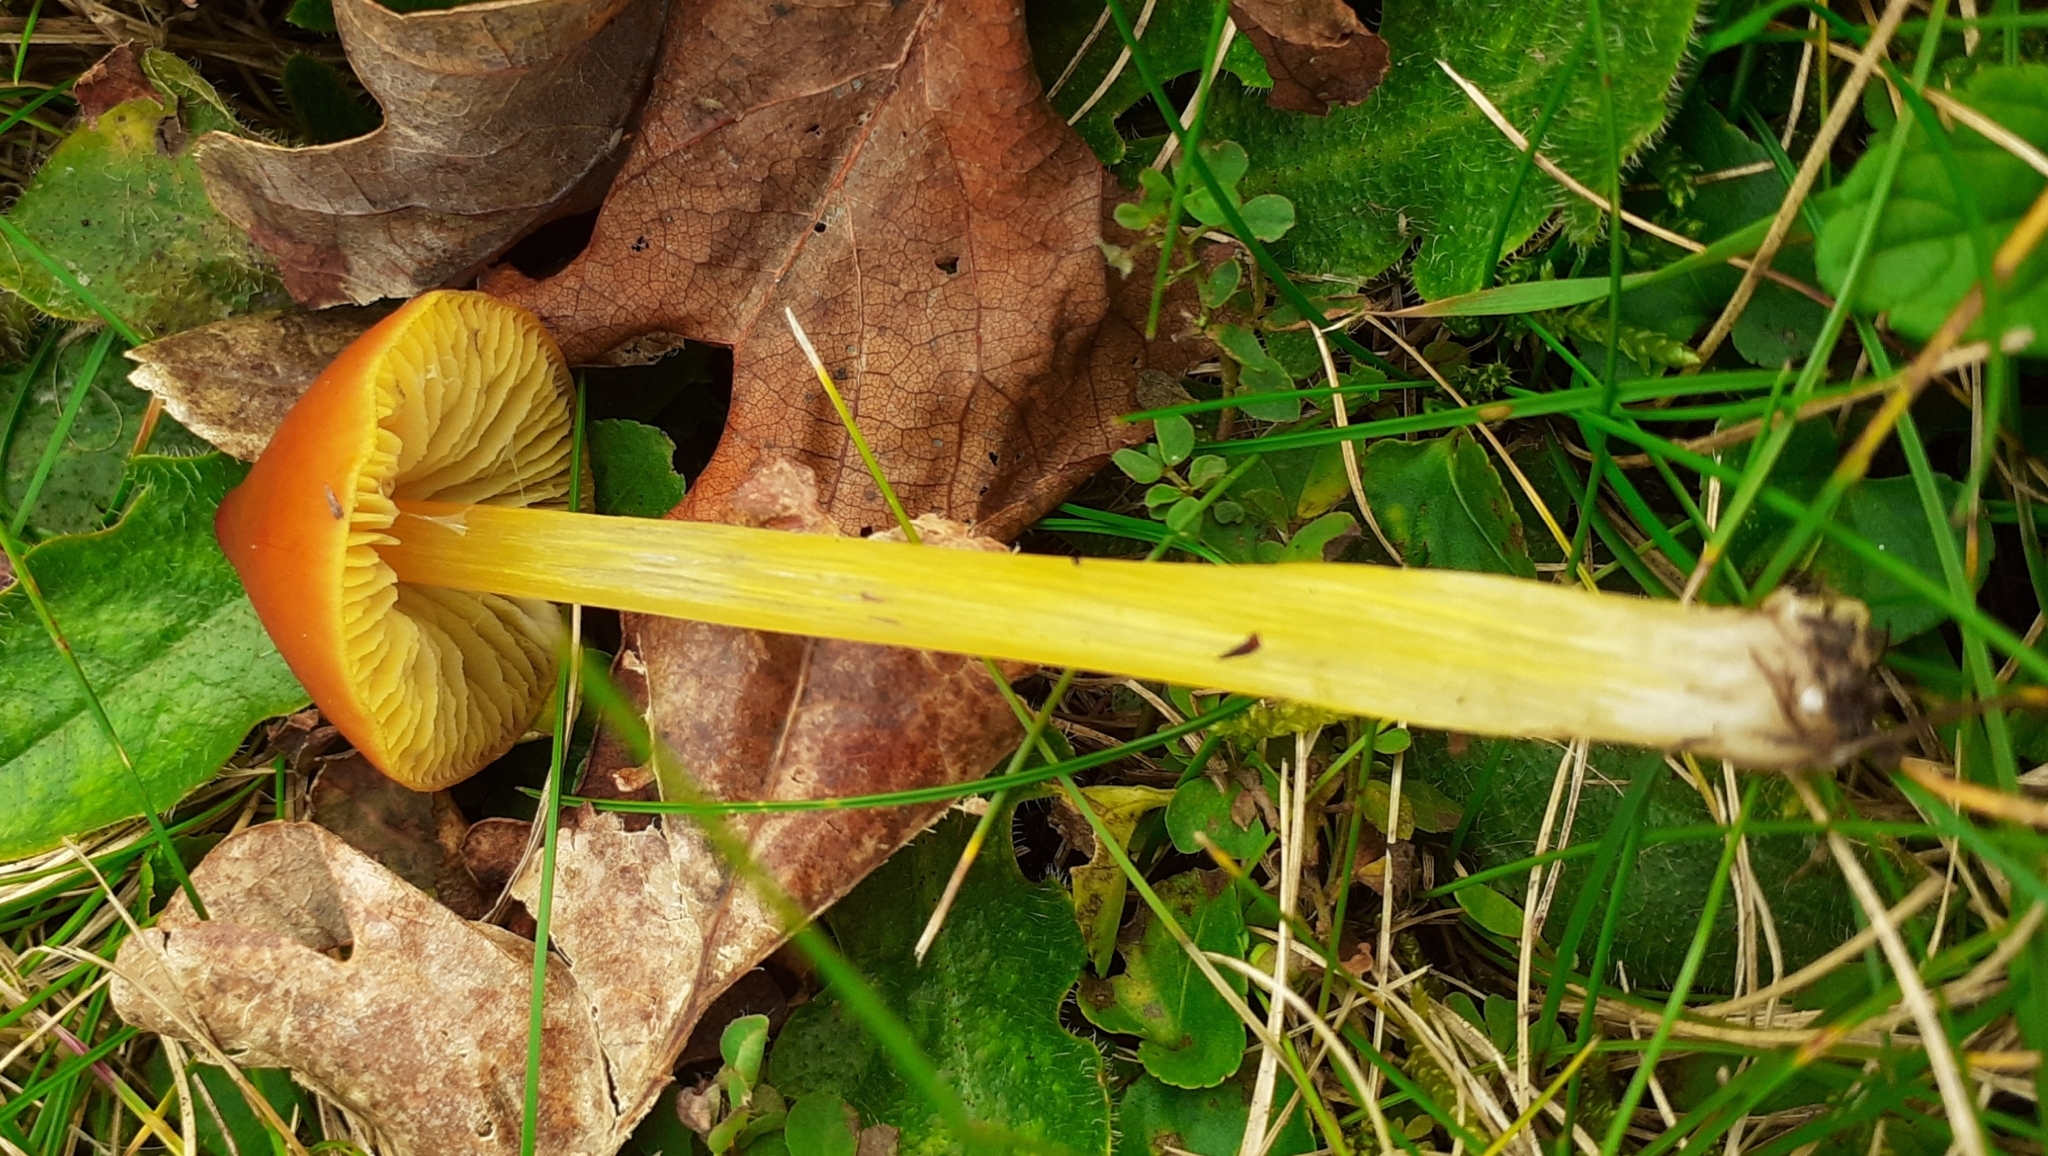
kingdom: Fungi
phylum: Basidiomycota
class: Agaricomycetes
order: Agaricales
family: Hygrophoraceae
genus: Hygrocybe
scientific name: Hygrocybe conica
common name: Blackening wax-cap
